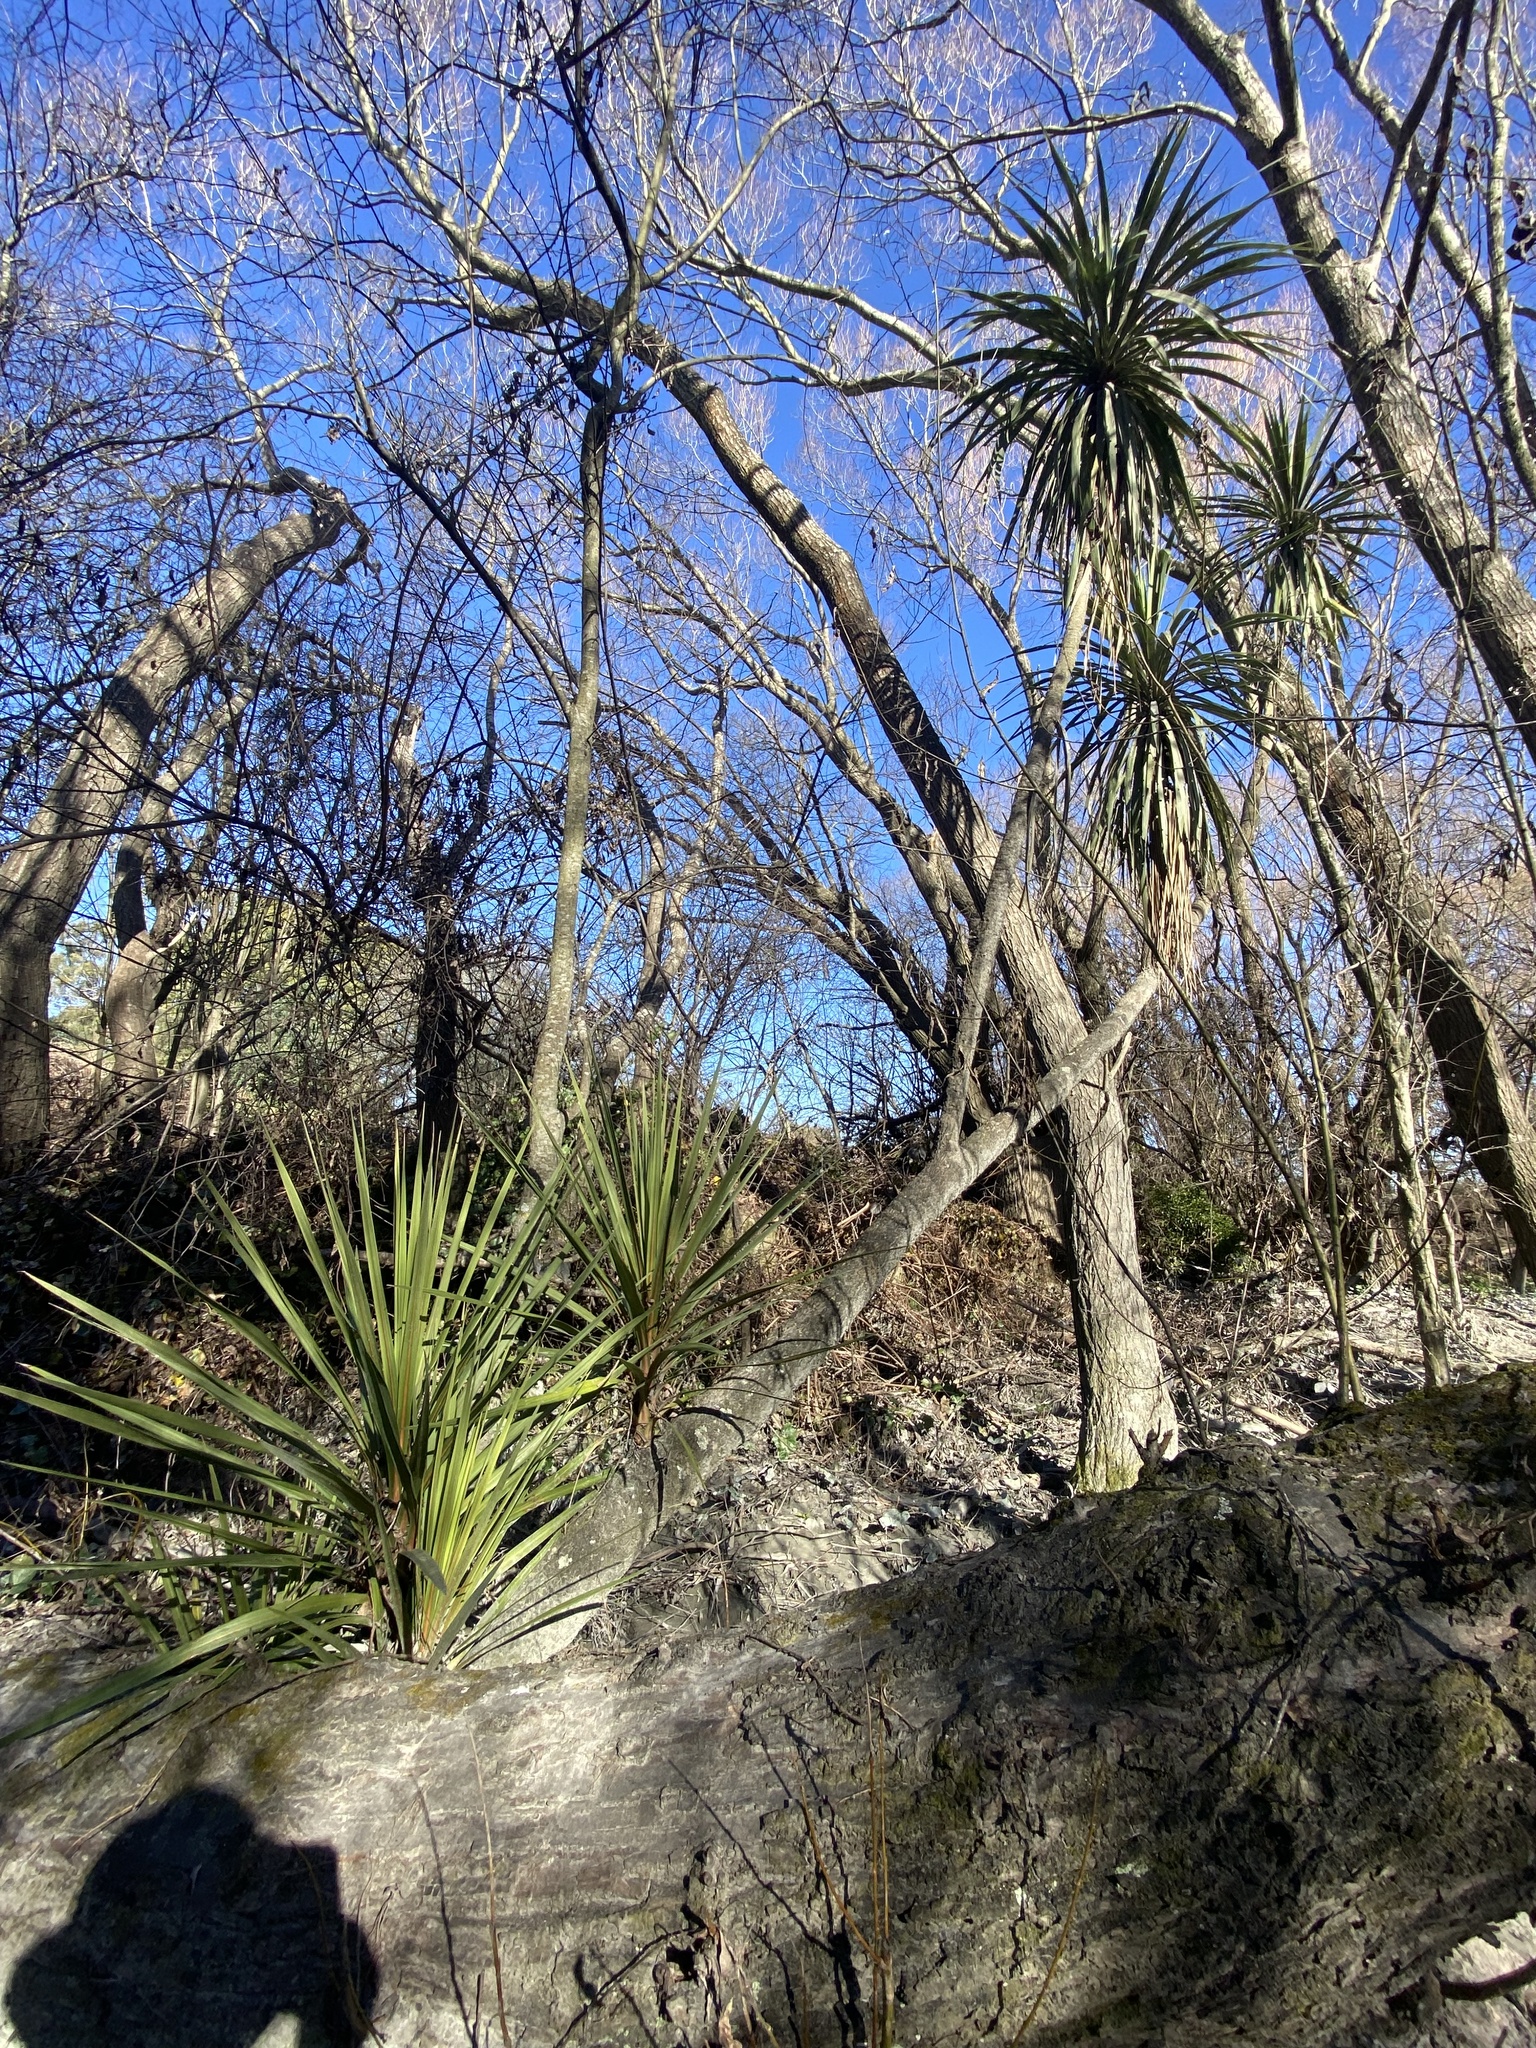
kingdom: Plantae
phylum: Tracheophyta
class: Liliopsida
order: Asparagales
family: Asparagaceae
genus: Cordyline
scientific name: Cordyline australis
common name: Cabbage-palm
